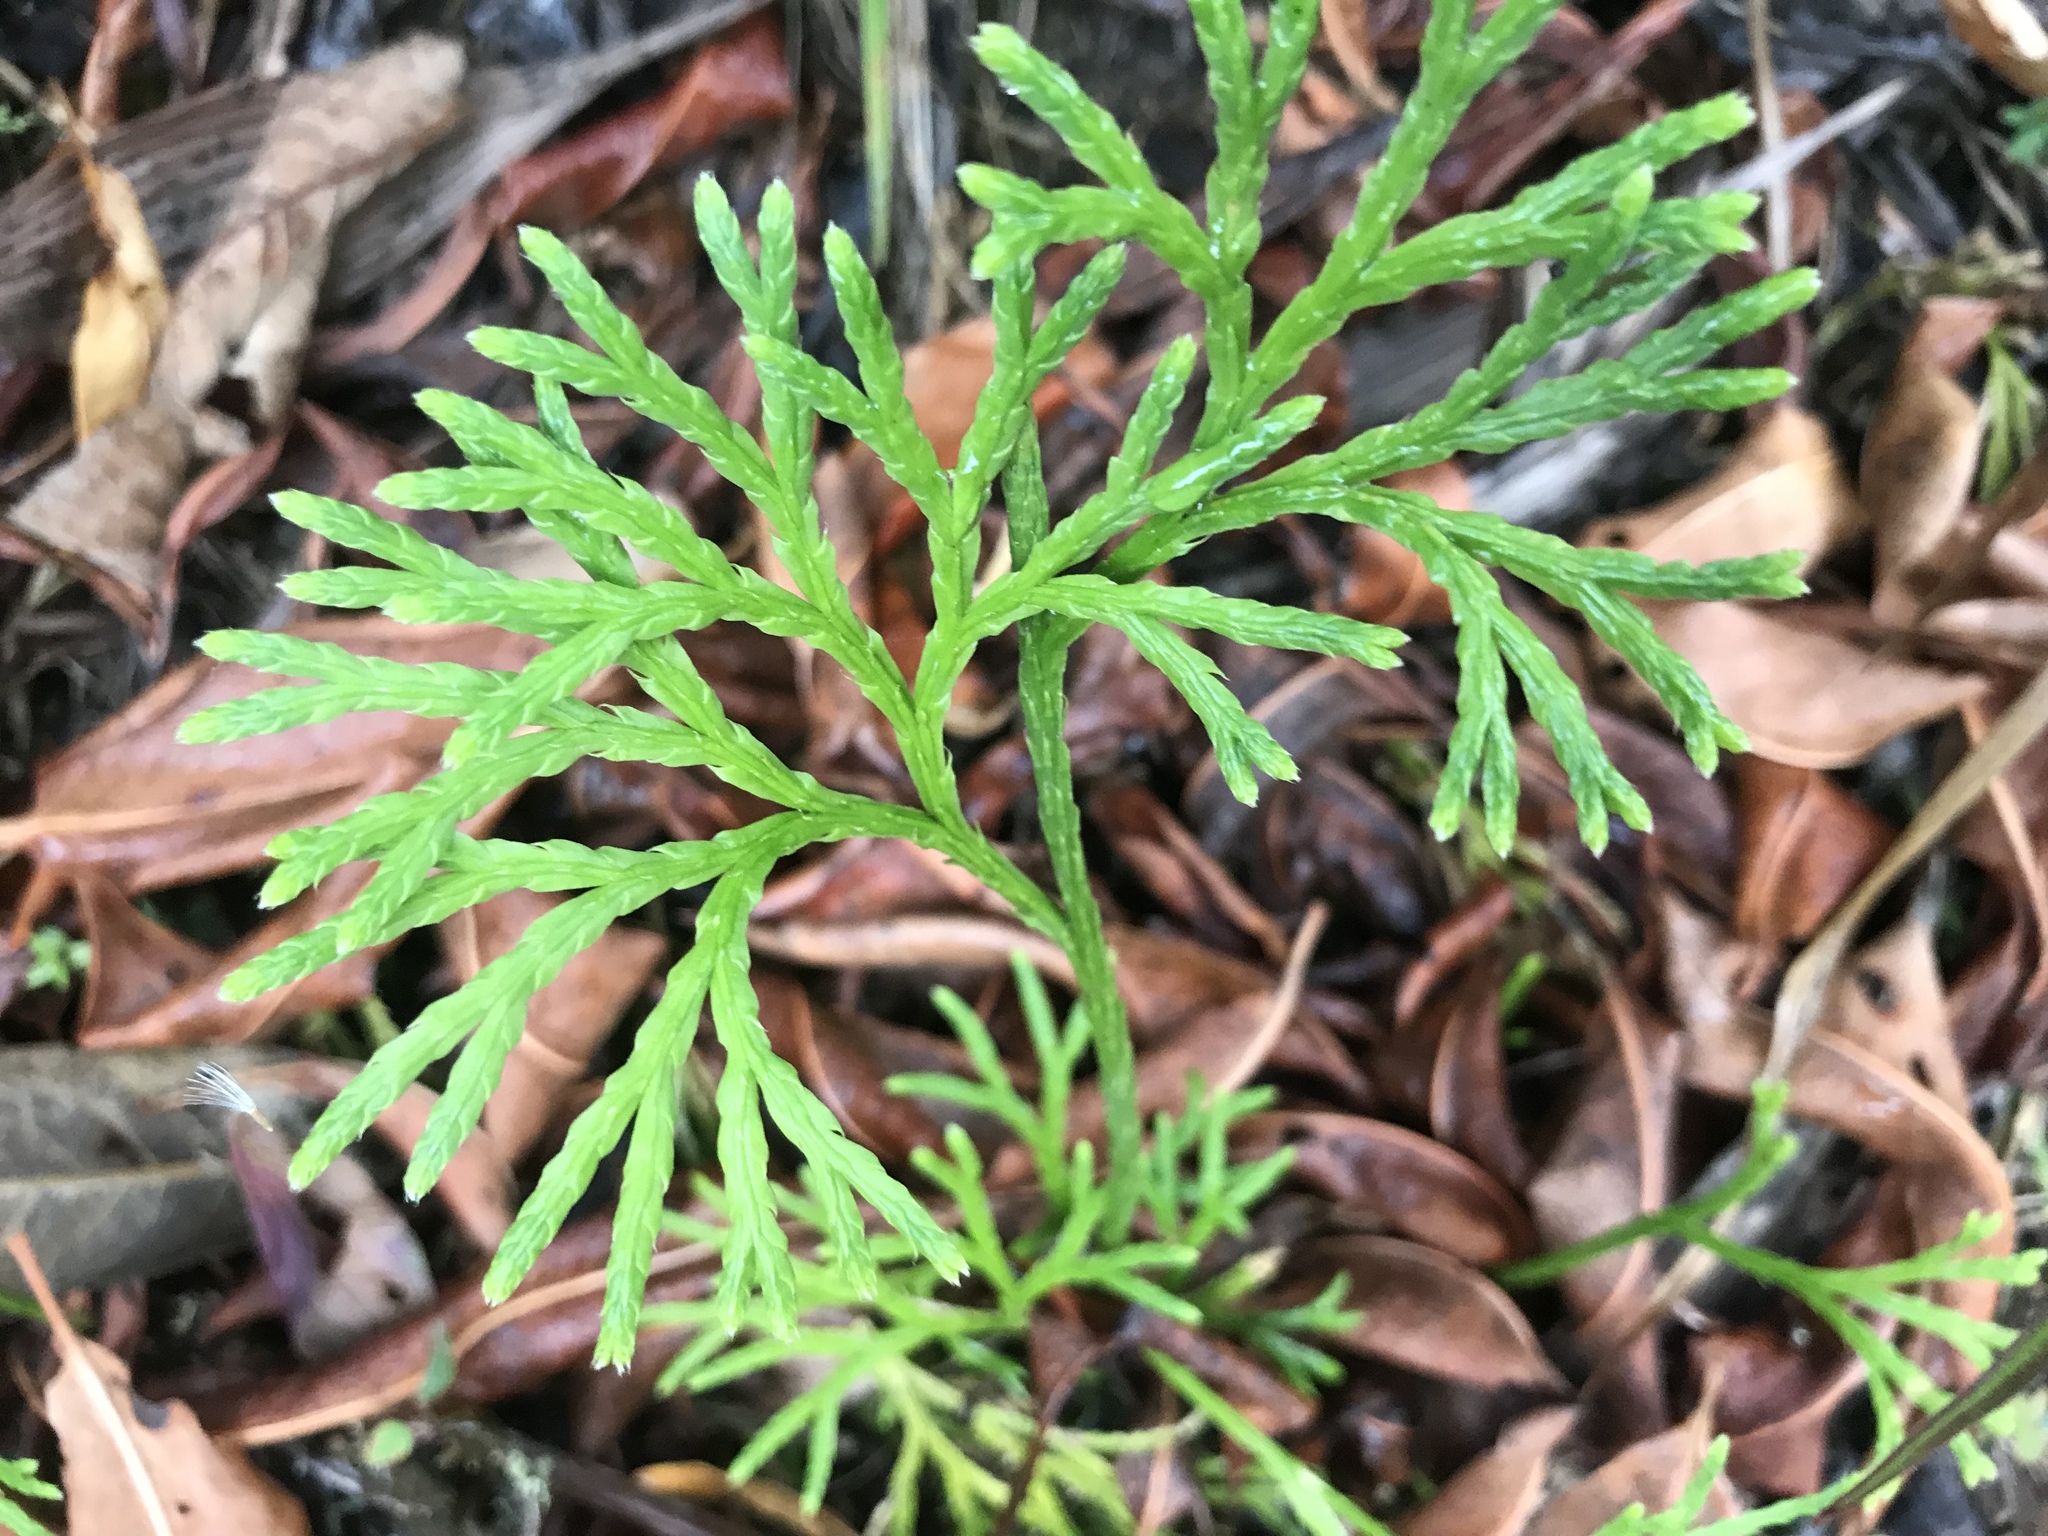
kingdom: Plantae
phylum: Tracheophyta
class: Lycopodiopsida
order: Lycopodiales
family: Lycopodiaceae
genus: Diphasiastrum
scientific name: Diphasiastrum thyoides
